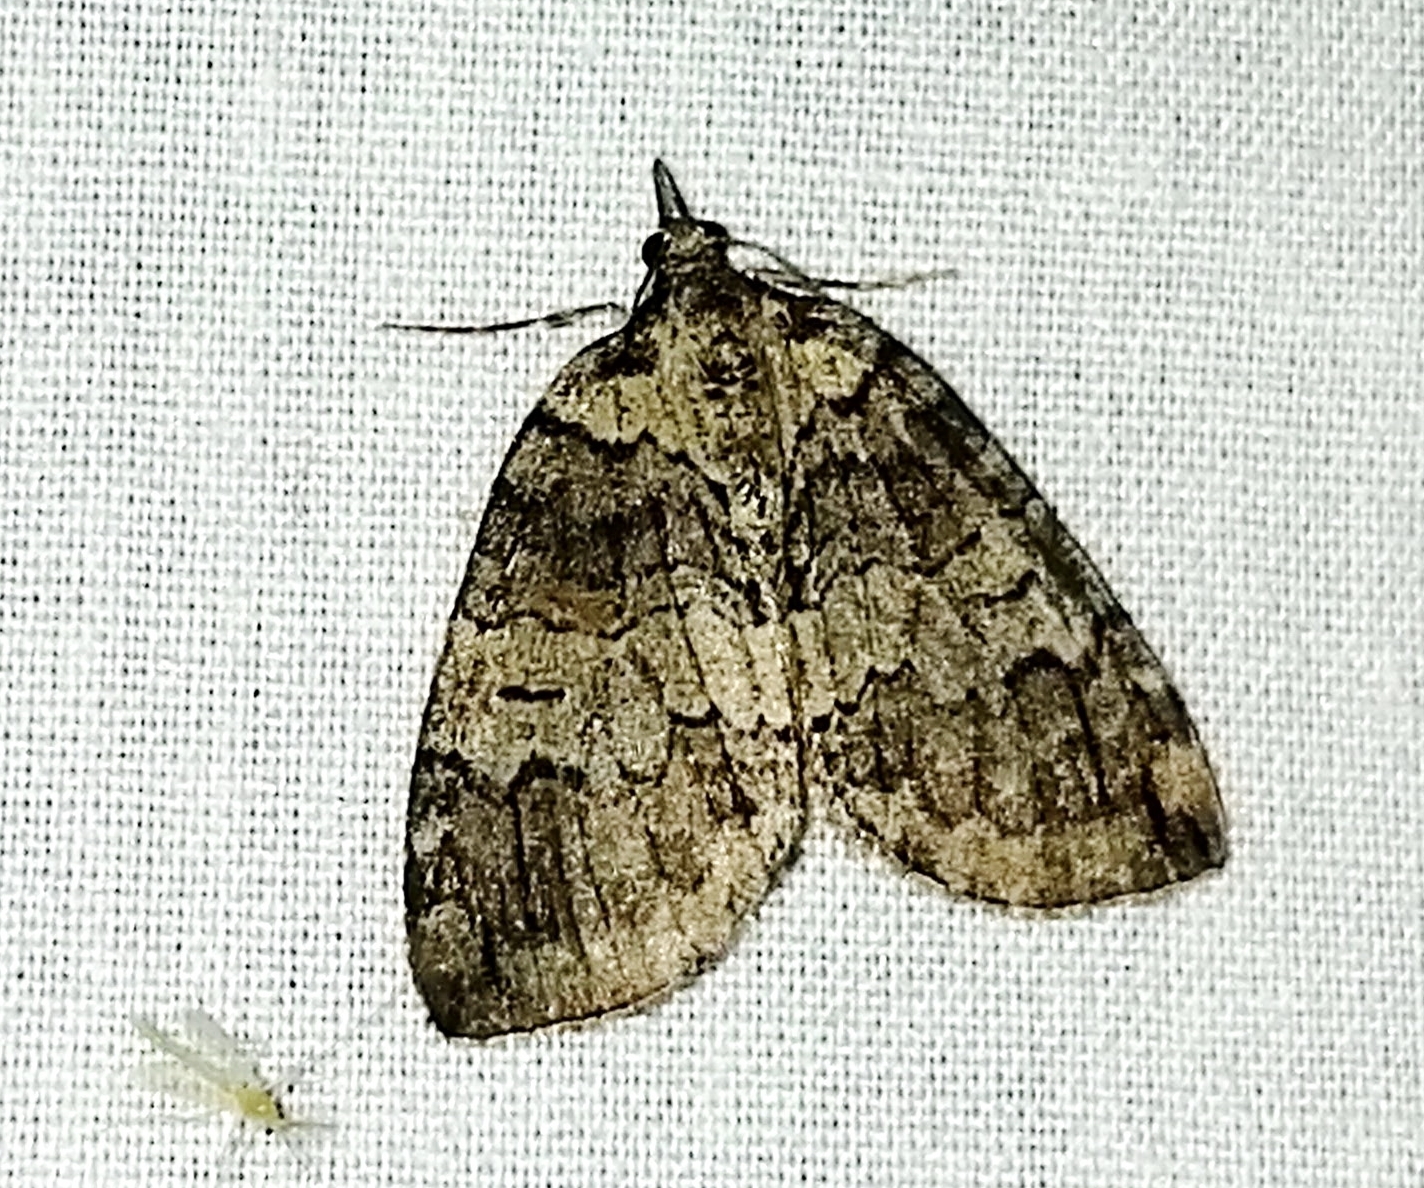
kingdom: Animalia
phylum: Arthropoda
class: Insecta
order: Lepidoptera
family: Geometridae
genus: Hydriomena
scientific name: Hydriomena ruberata
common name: Ruddy highflyer
